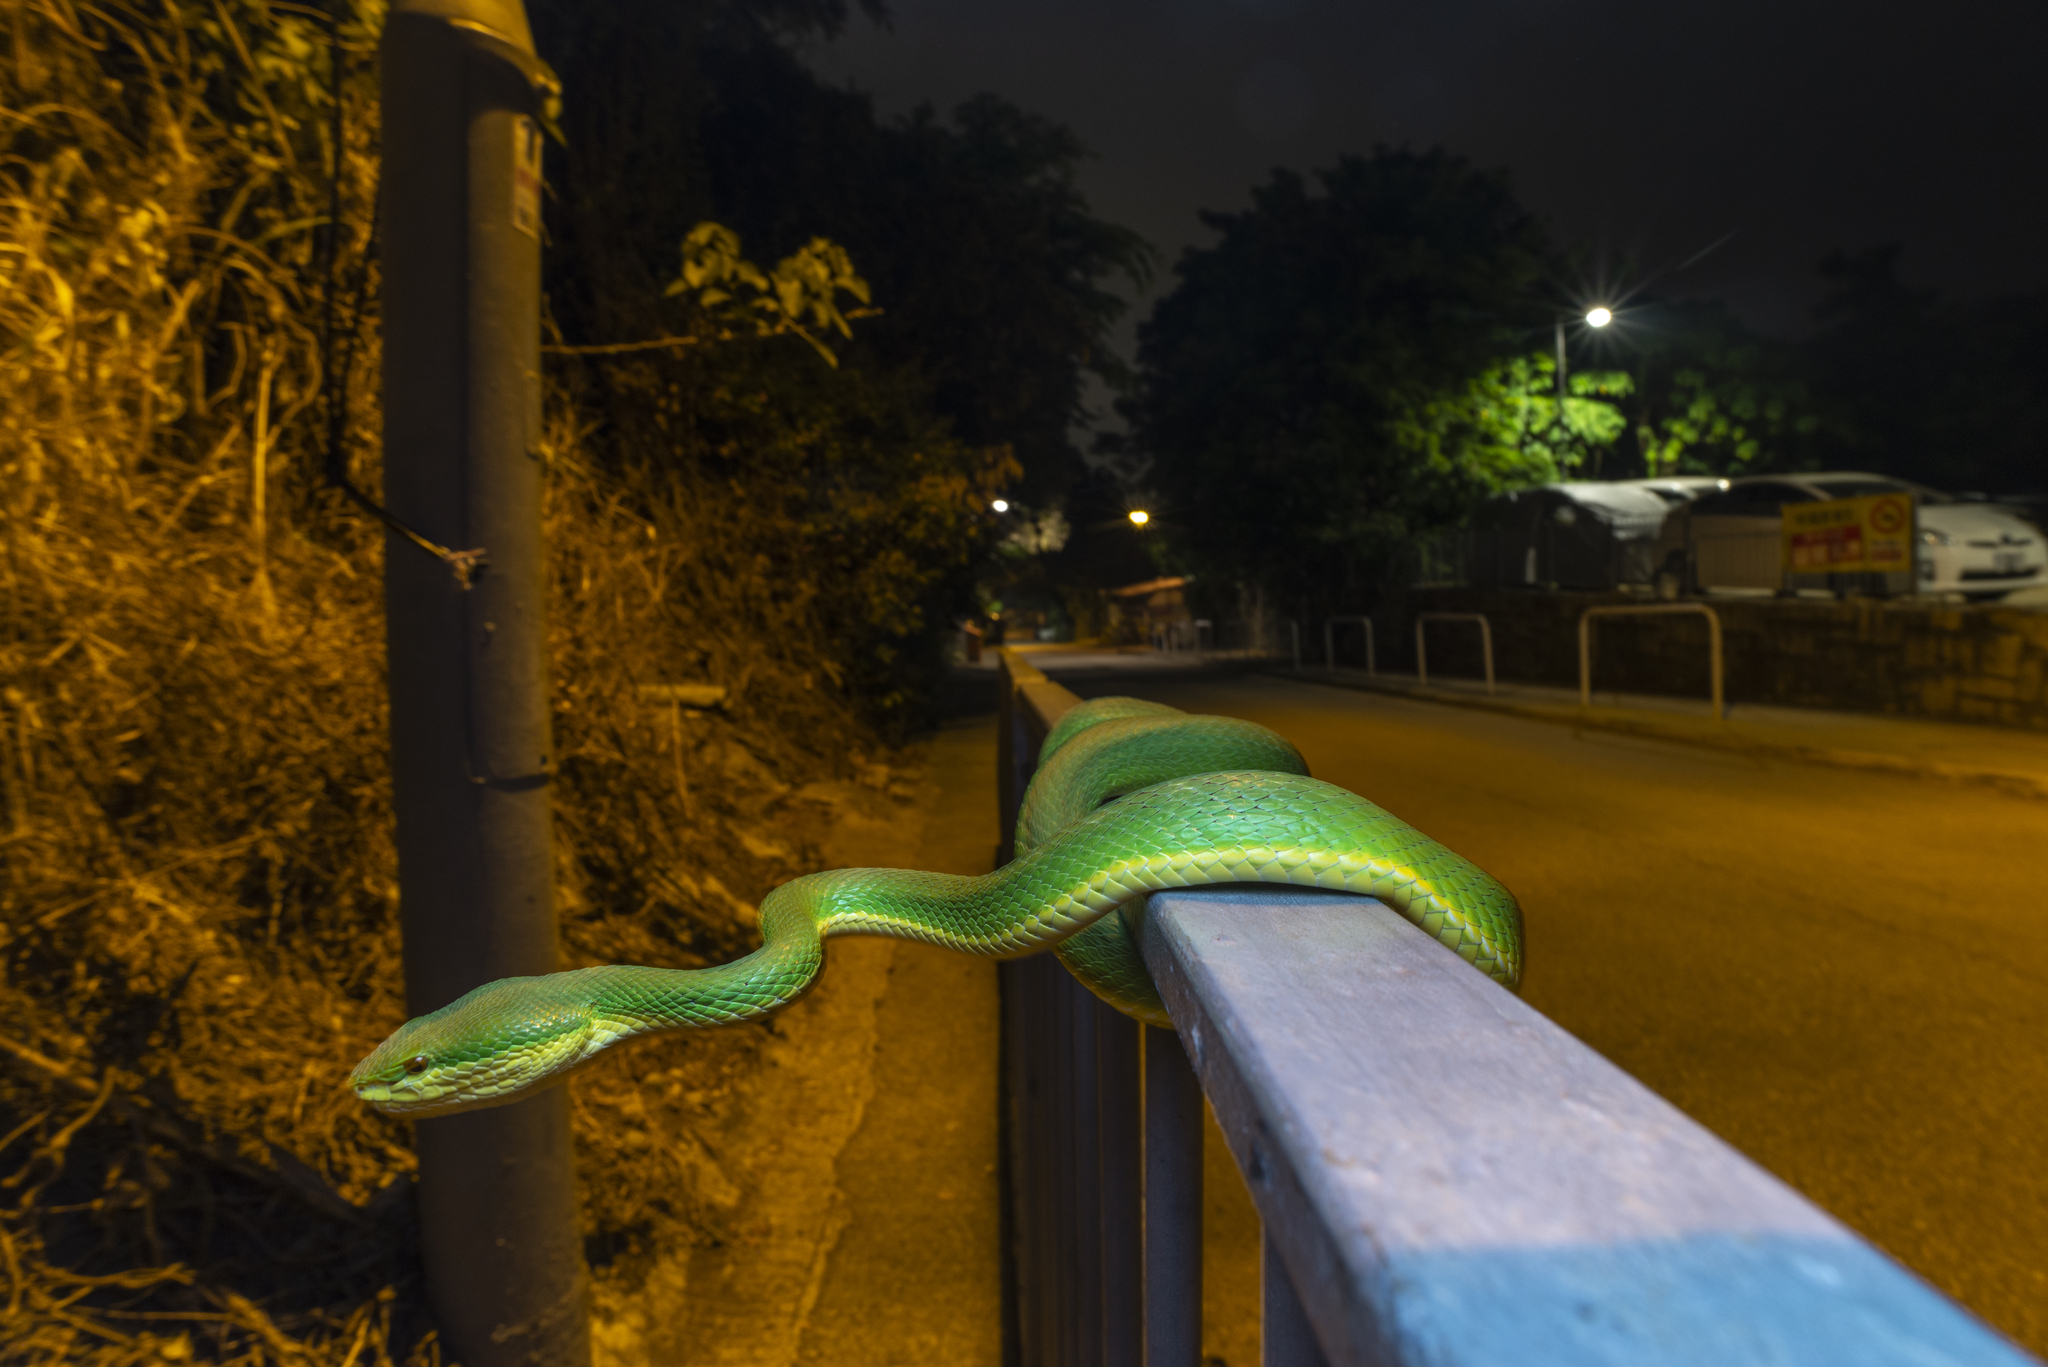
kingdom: Animalia
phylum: Chordata
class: Squamata
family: Viperidae
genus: Trimeresurus
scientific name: Trimeresurus albolabris
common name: White-lipped pitviper
